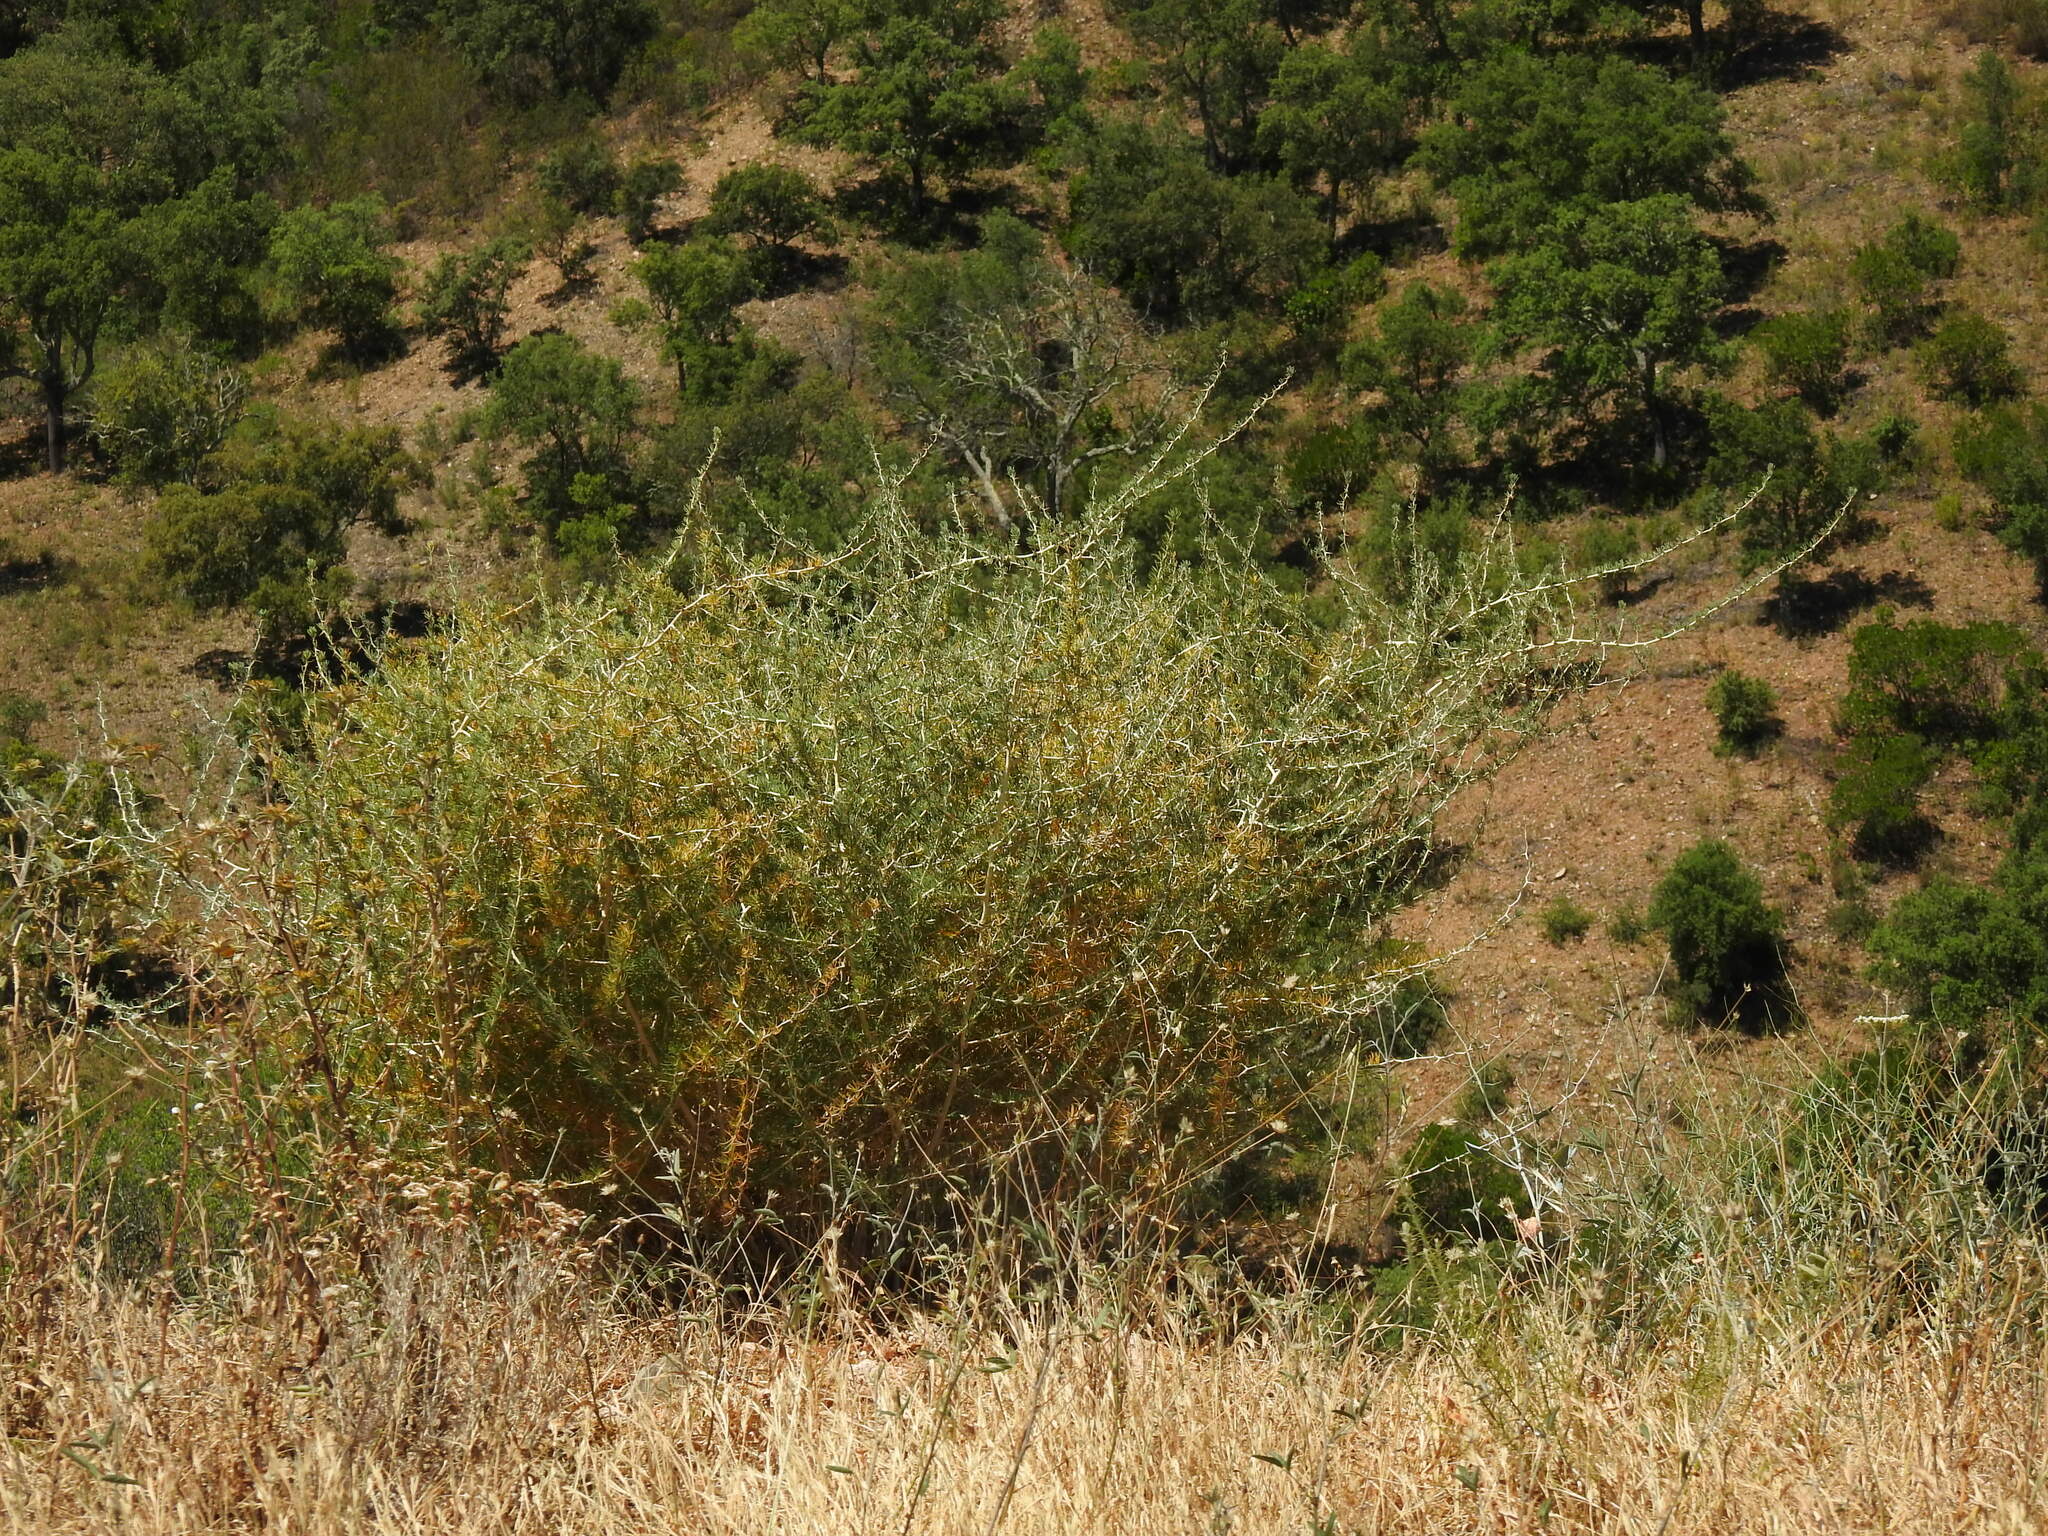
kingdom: Plantae
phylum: Tracheophyta
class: Liliopsida
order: Asparagales
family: Asparagaceae
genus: Asparagus
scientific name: Asparagus albus
